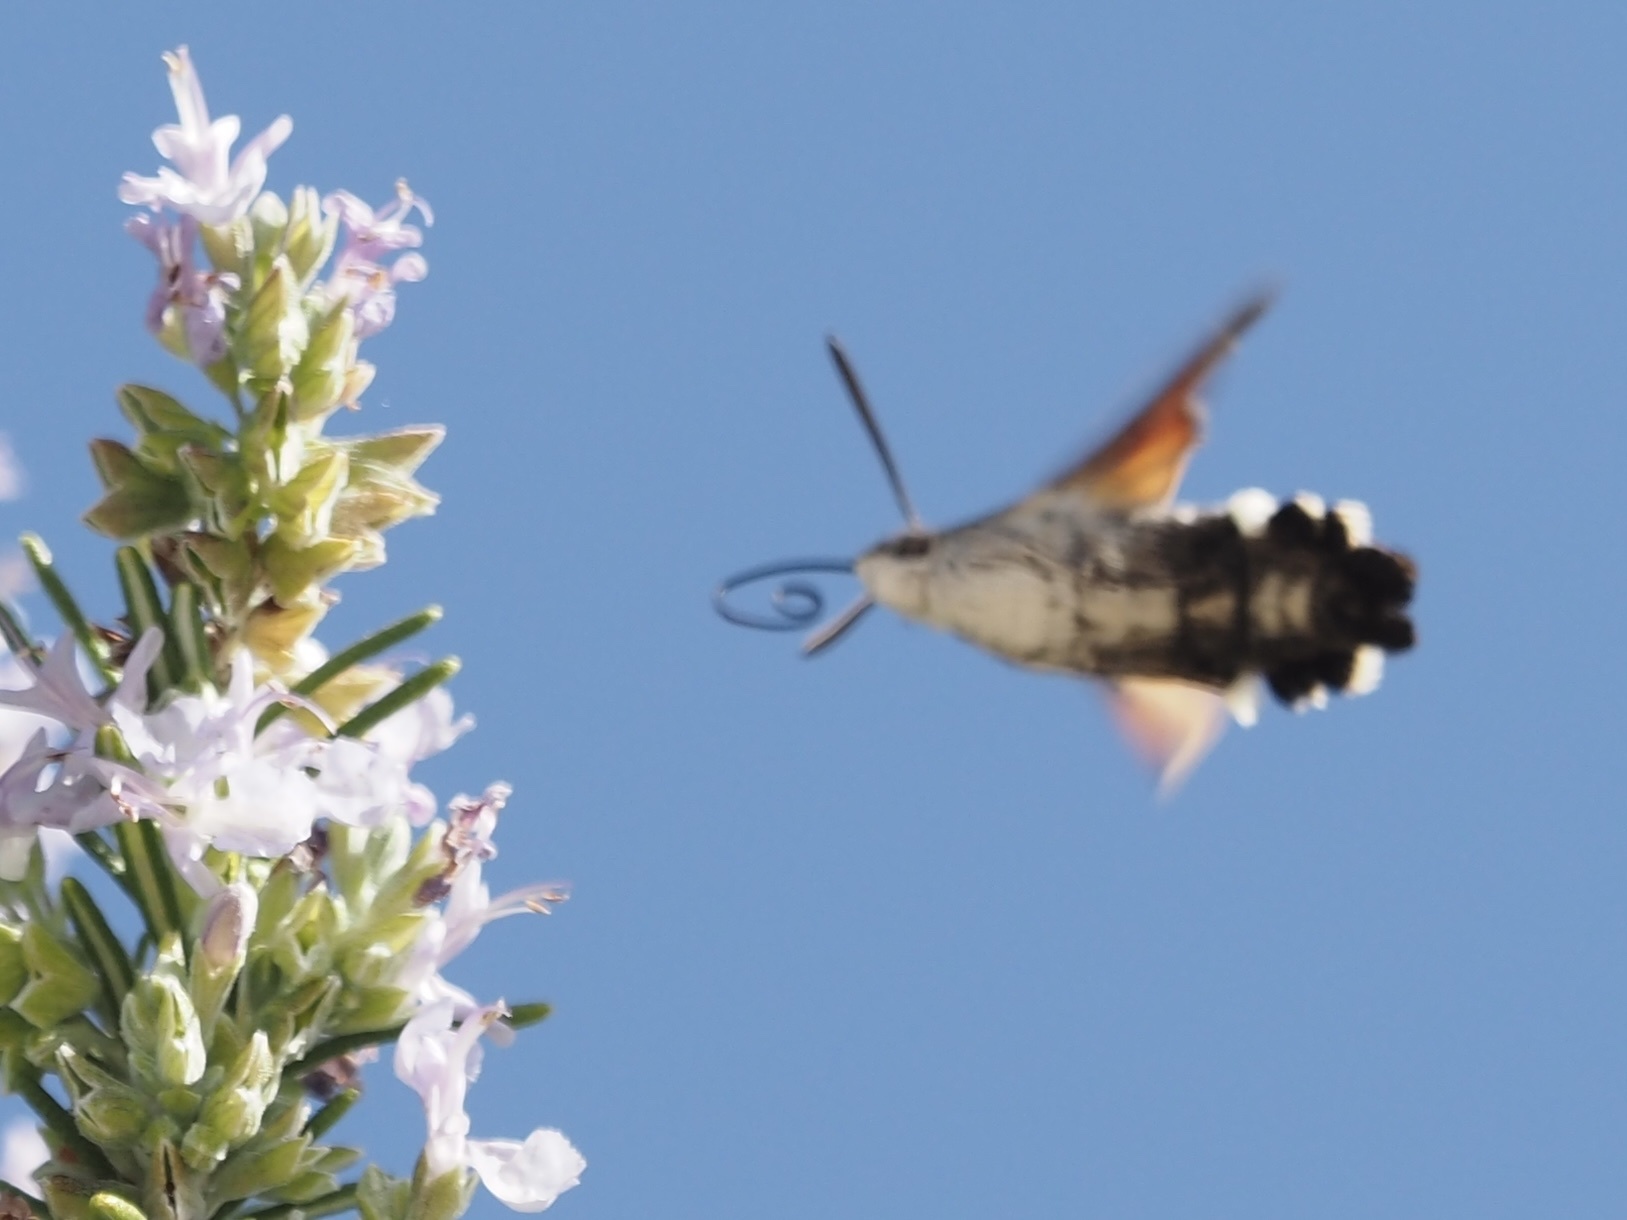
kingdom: Animalia
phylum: Arthropoda
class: Insecta
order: Lepidoptera
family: Sphingidae
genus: Macroglossum
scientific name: Macroglossum stellatarum
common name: Humming-bird hawk-moth
